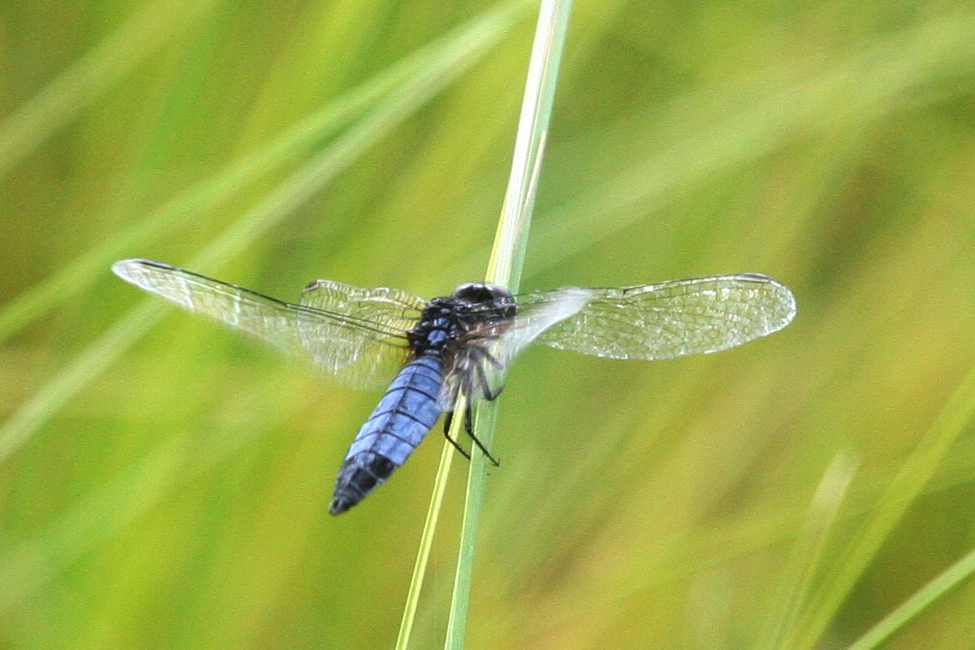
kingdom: Animalia
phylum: Arthropoda
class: Insecta
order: Odonata
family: Libellulidae
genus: Lyriothemis
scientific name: Lyriothemis pachygastra
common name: Wide-bellied skimmer
